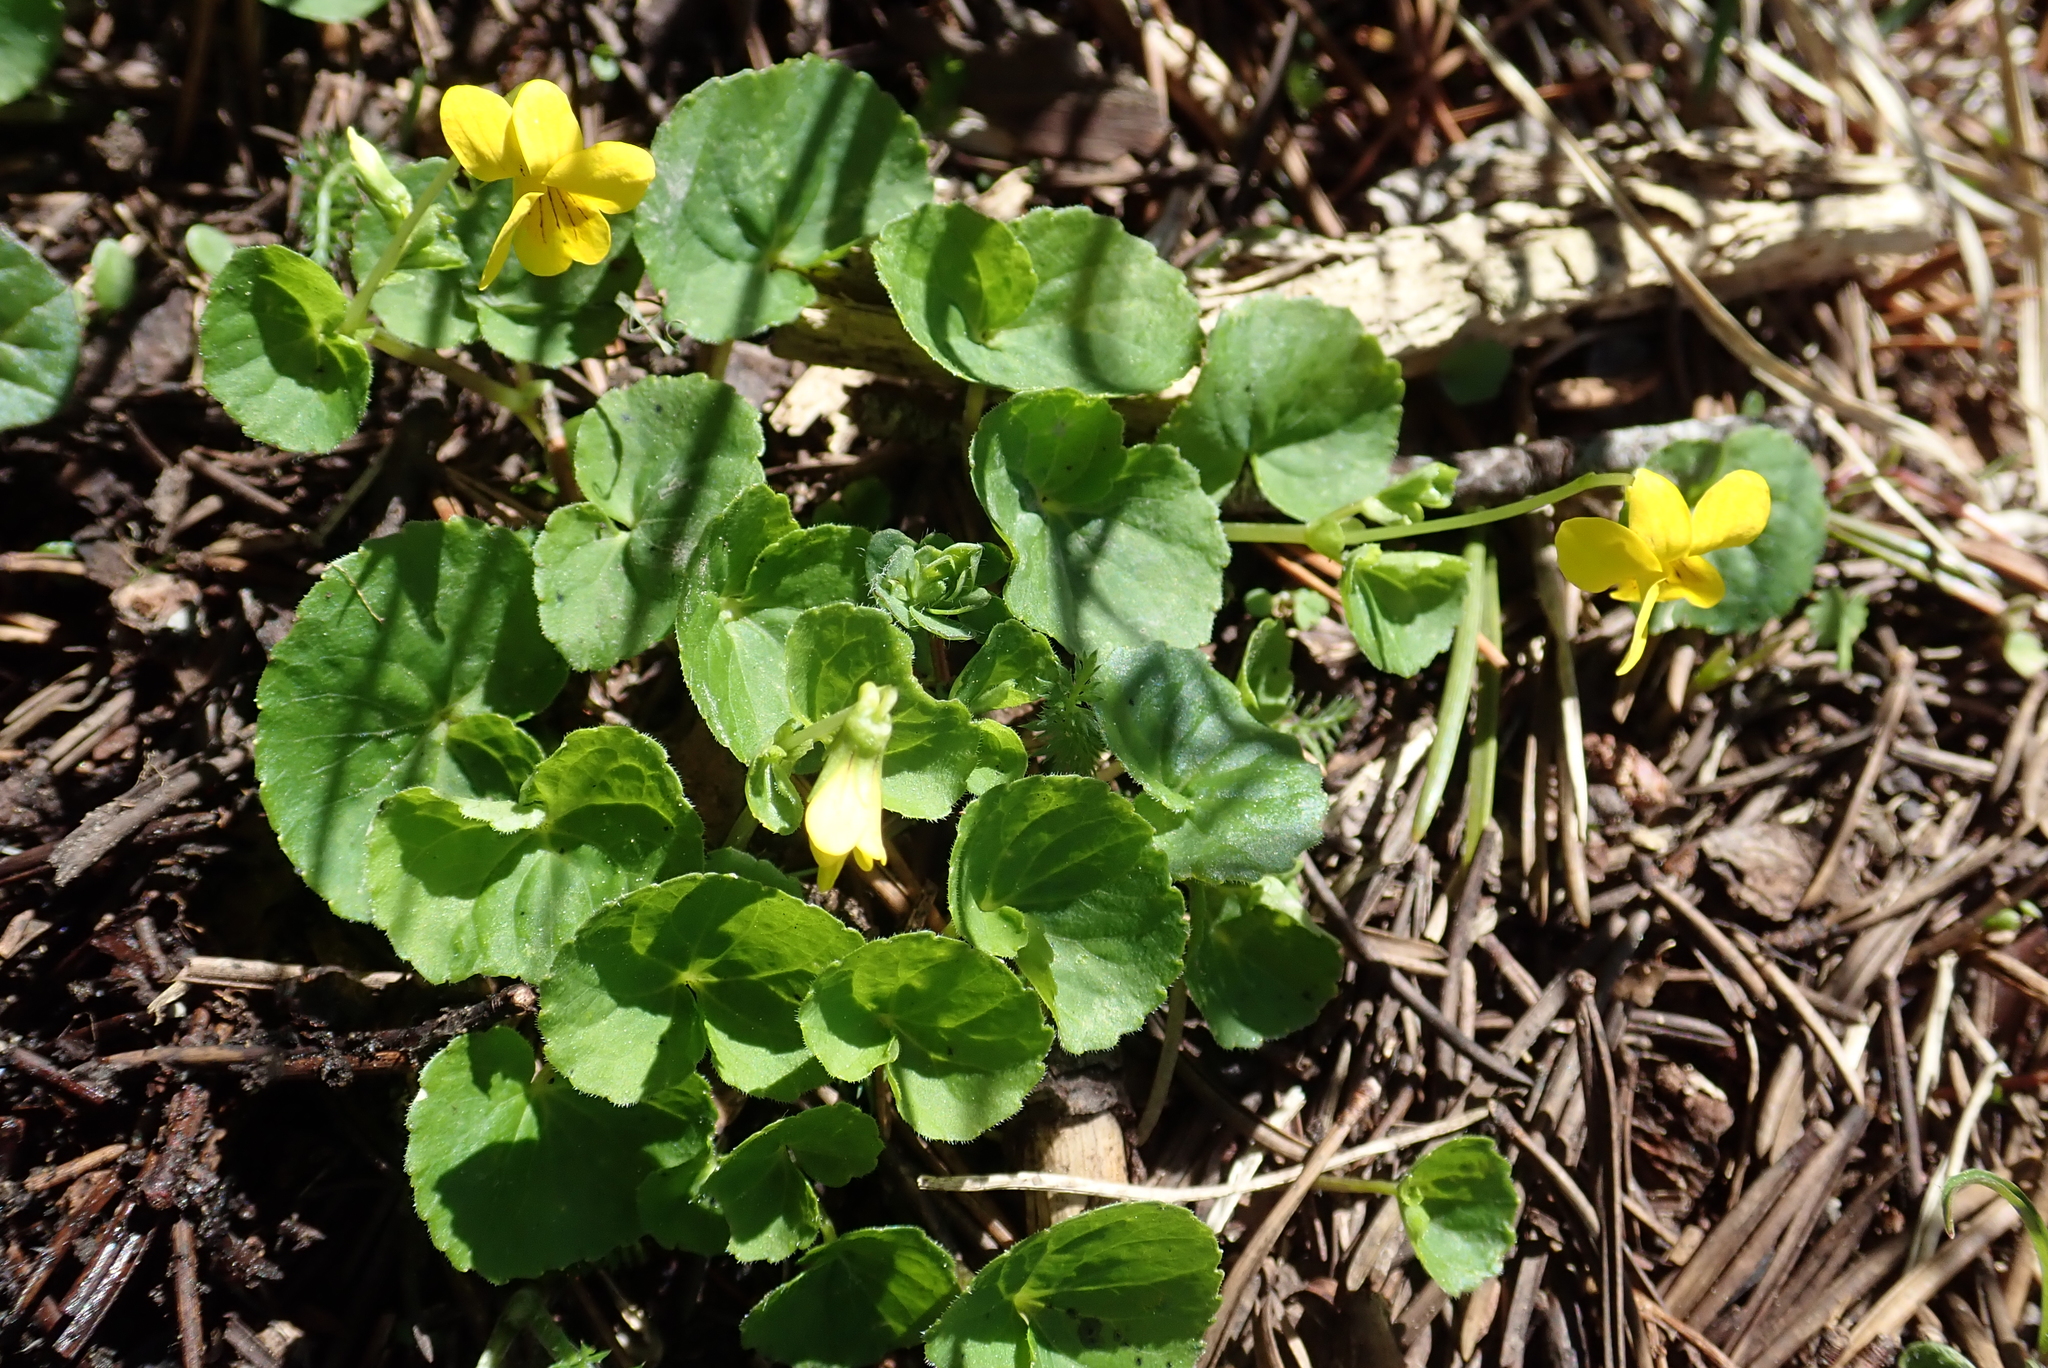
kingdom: Plantae
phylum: Tracheophyta
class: Magnoliopsida
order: Malpighiales
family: Violaceae
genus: Viola
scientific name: Viola biflora
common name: Alpine yellow violet
